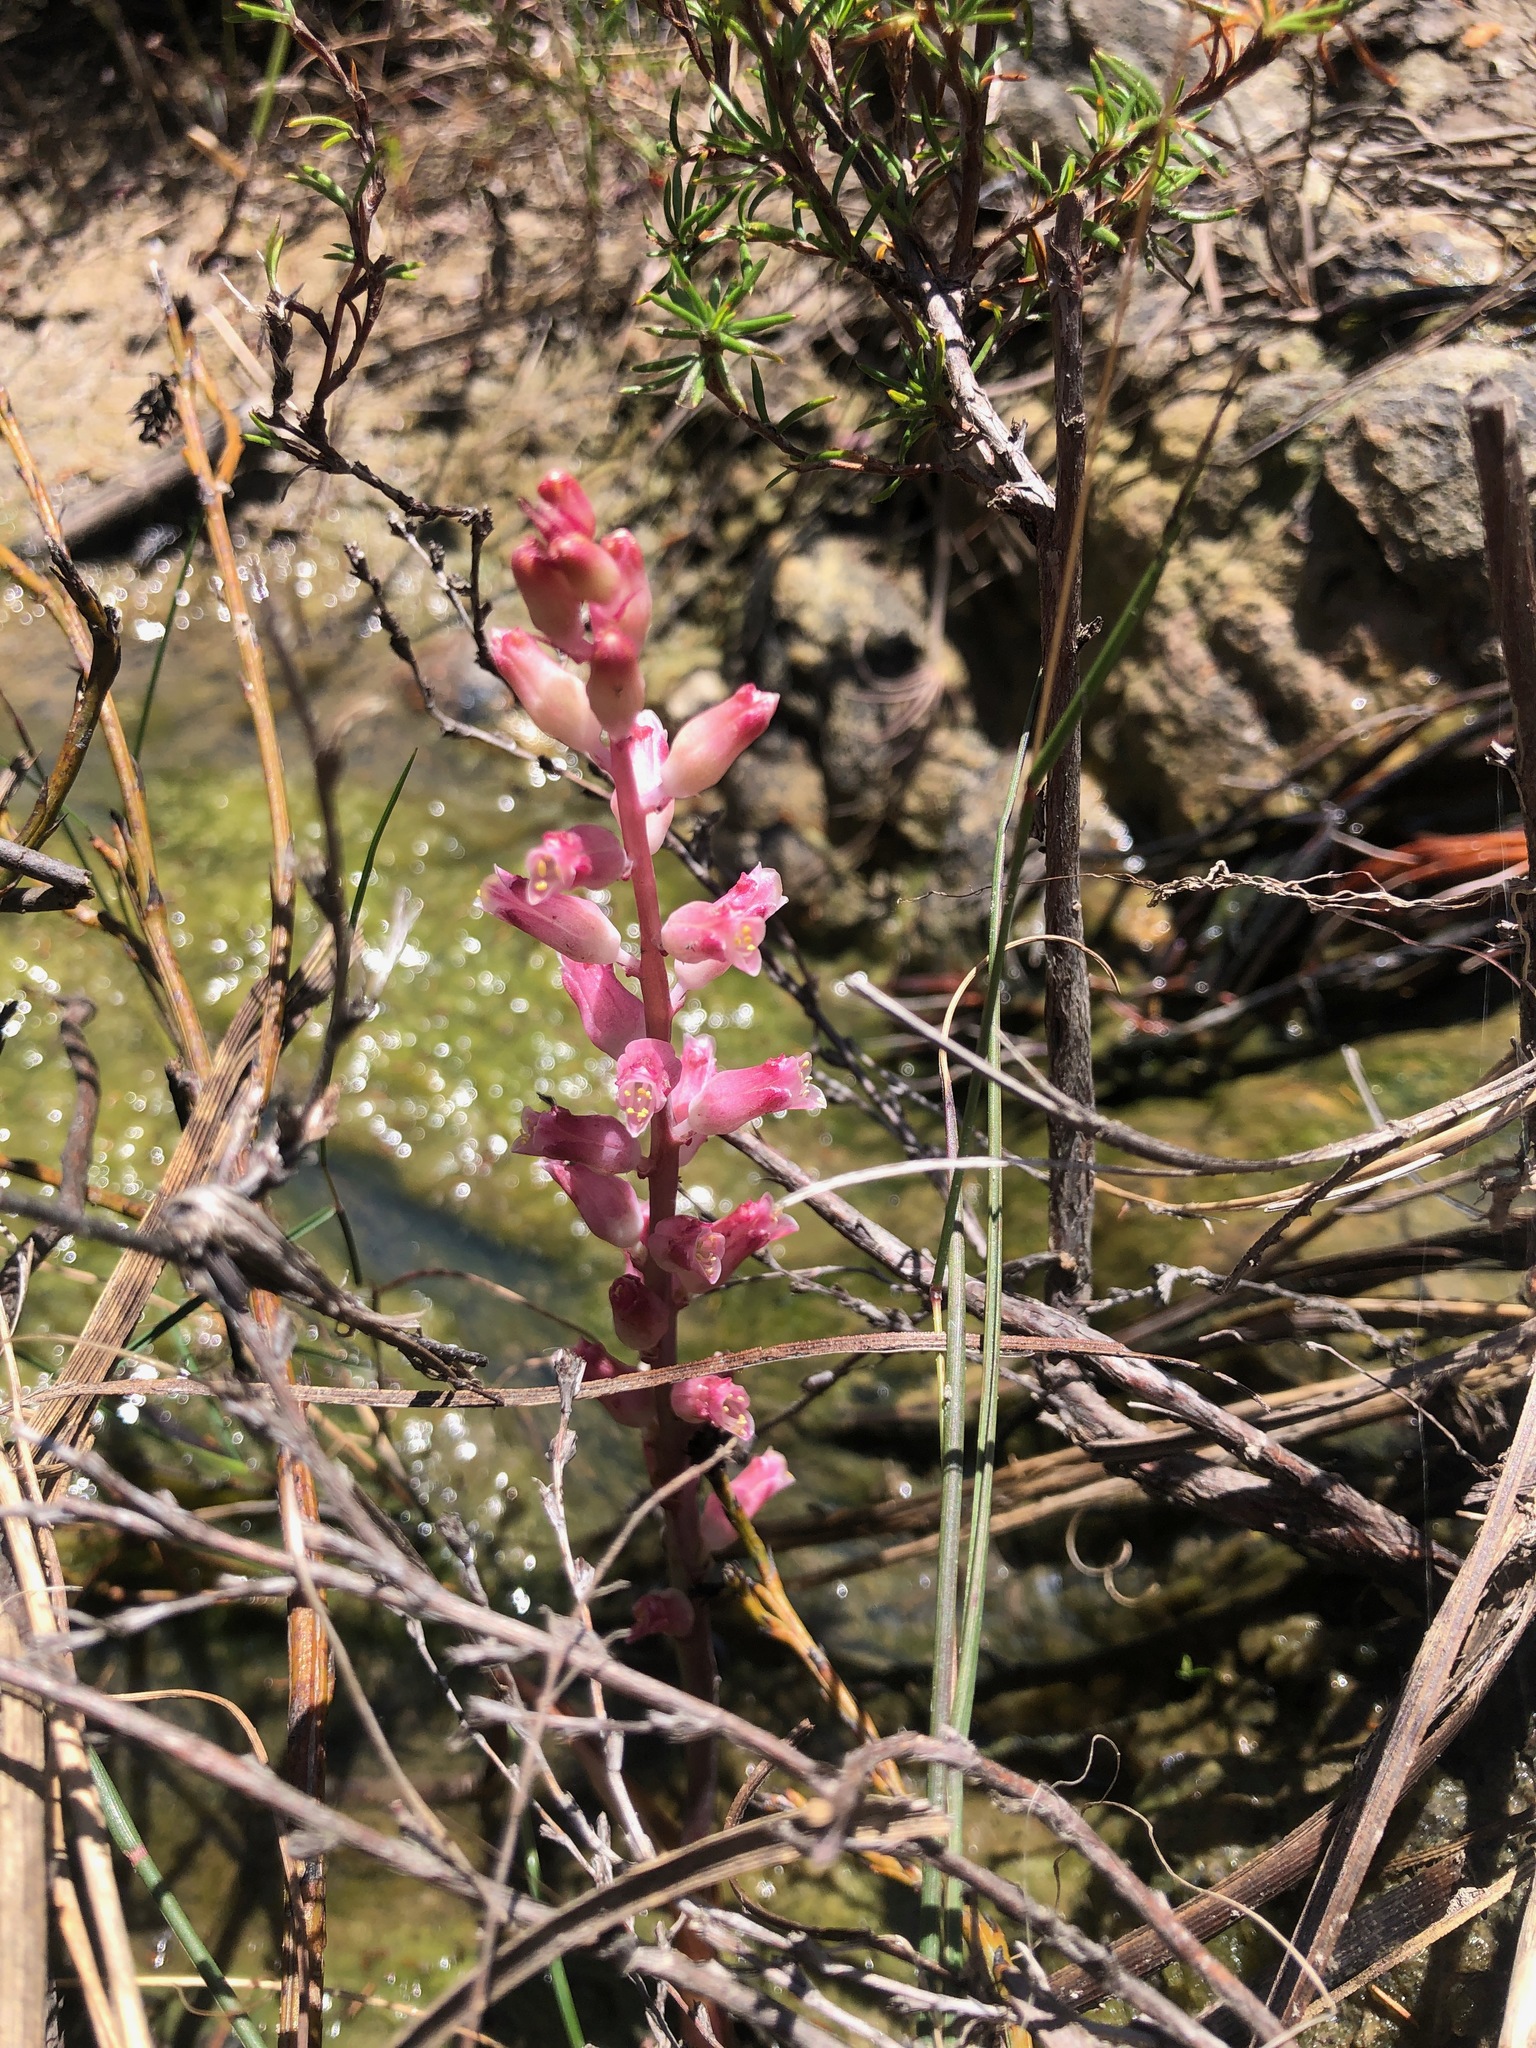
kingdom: Plantae
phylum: Tracheophyta
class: Liliopsida
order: Asparagales
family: Asparagaceae
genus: Lachenalia
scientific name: Lachenalia rosea
